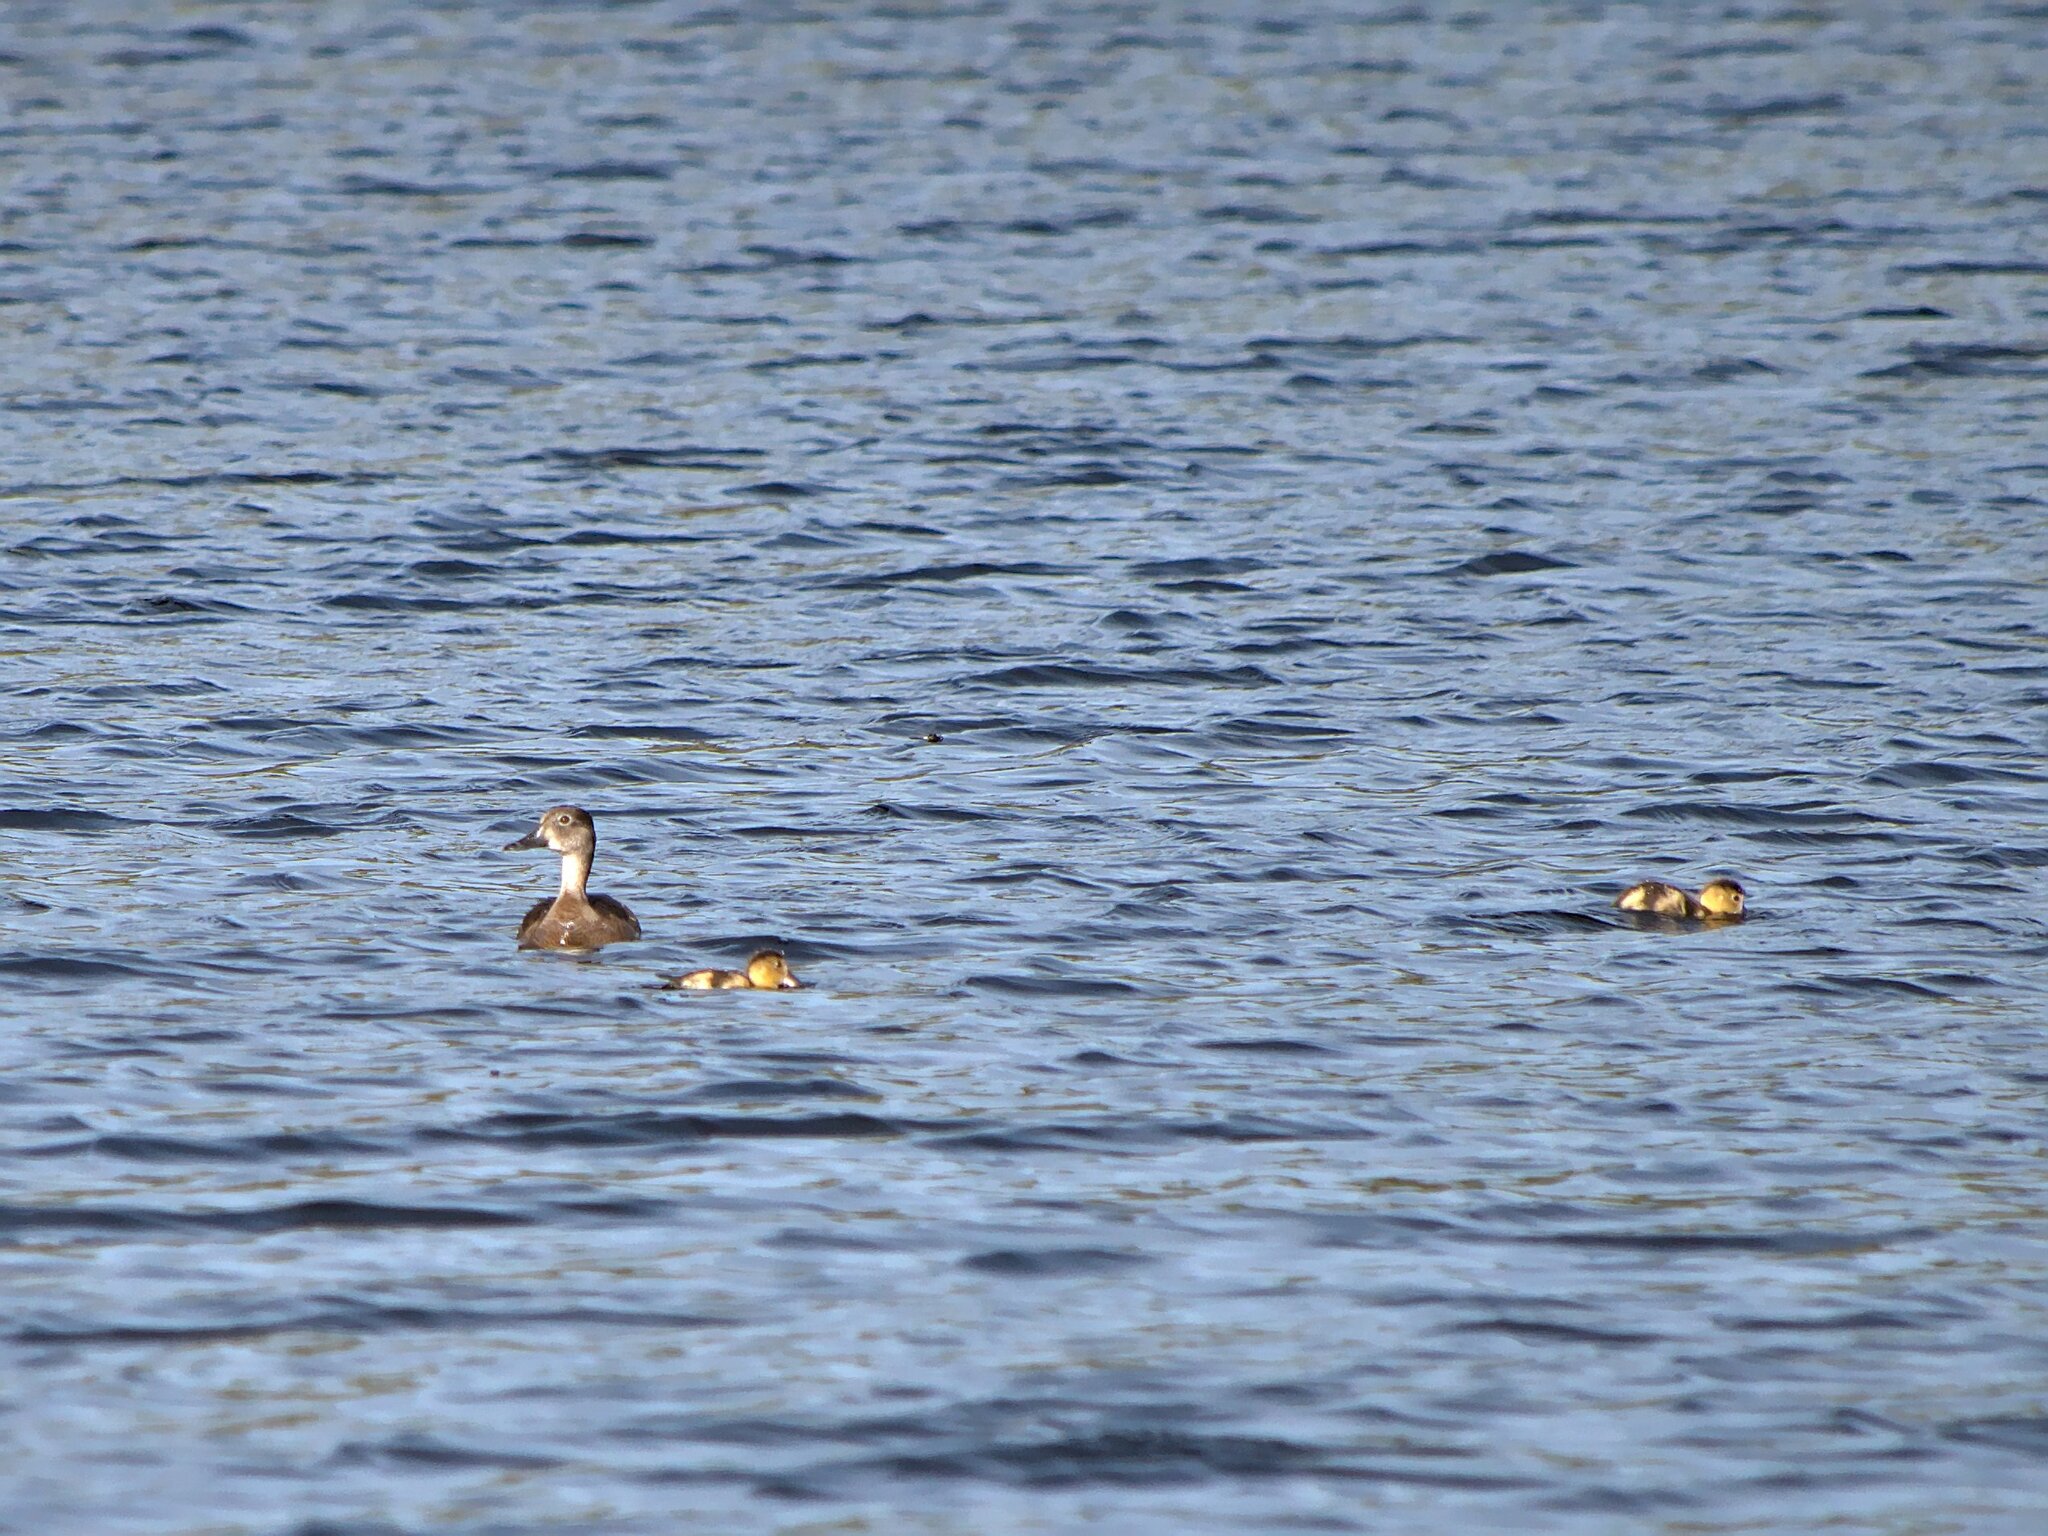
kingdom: Animalia
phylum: Chordata
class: Aves
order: Anseriformes
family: Anatidae
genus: Aythya
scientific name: Aythya collaris
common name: Ring-necked duck
